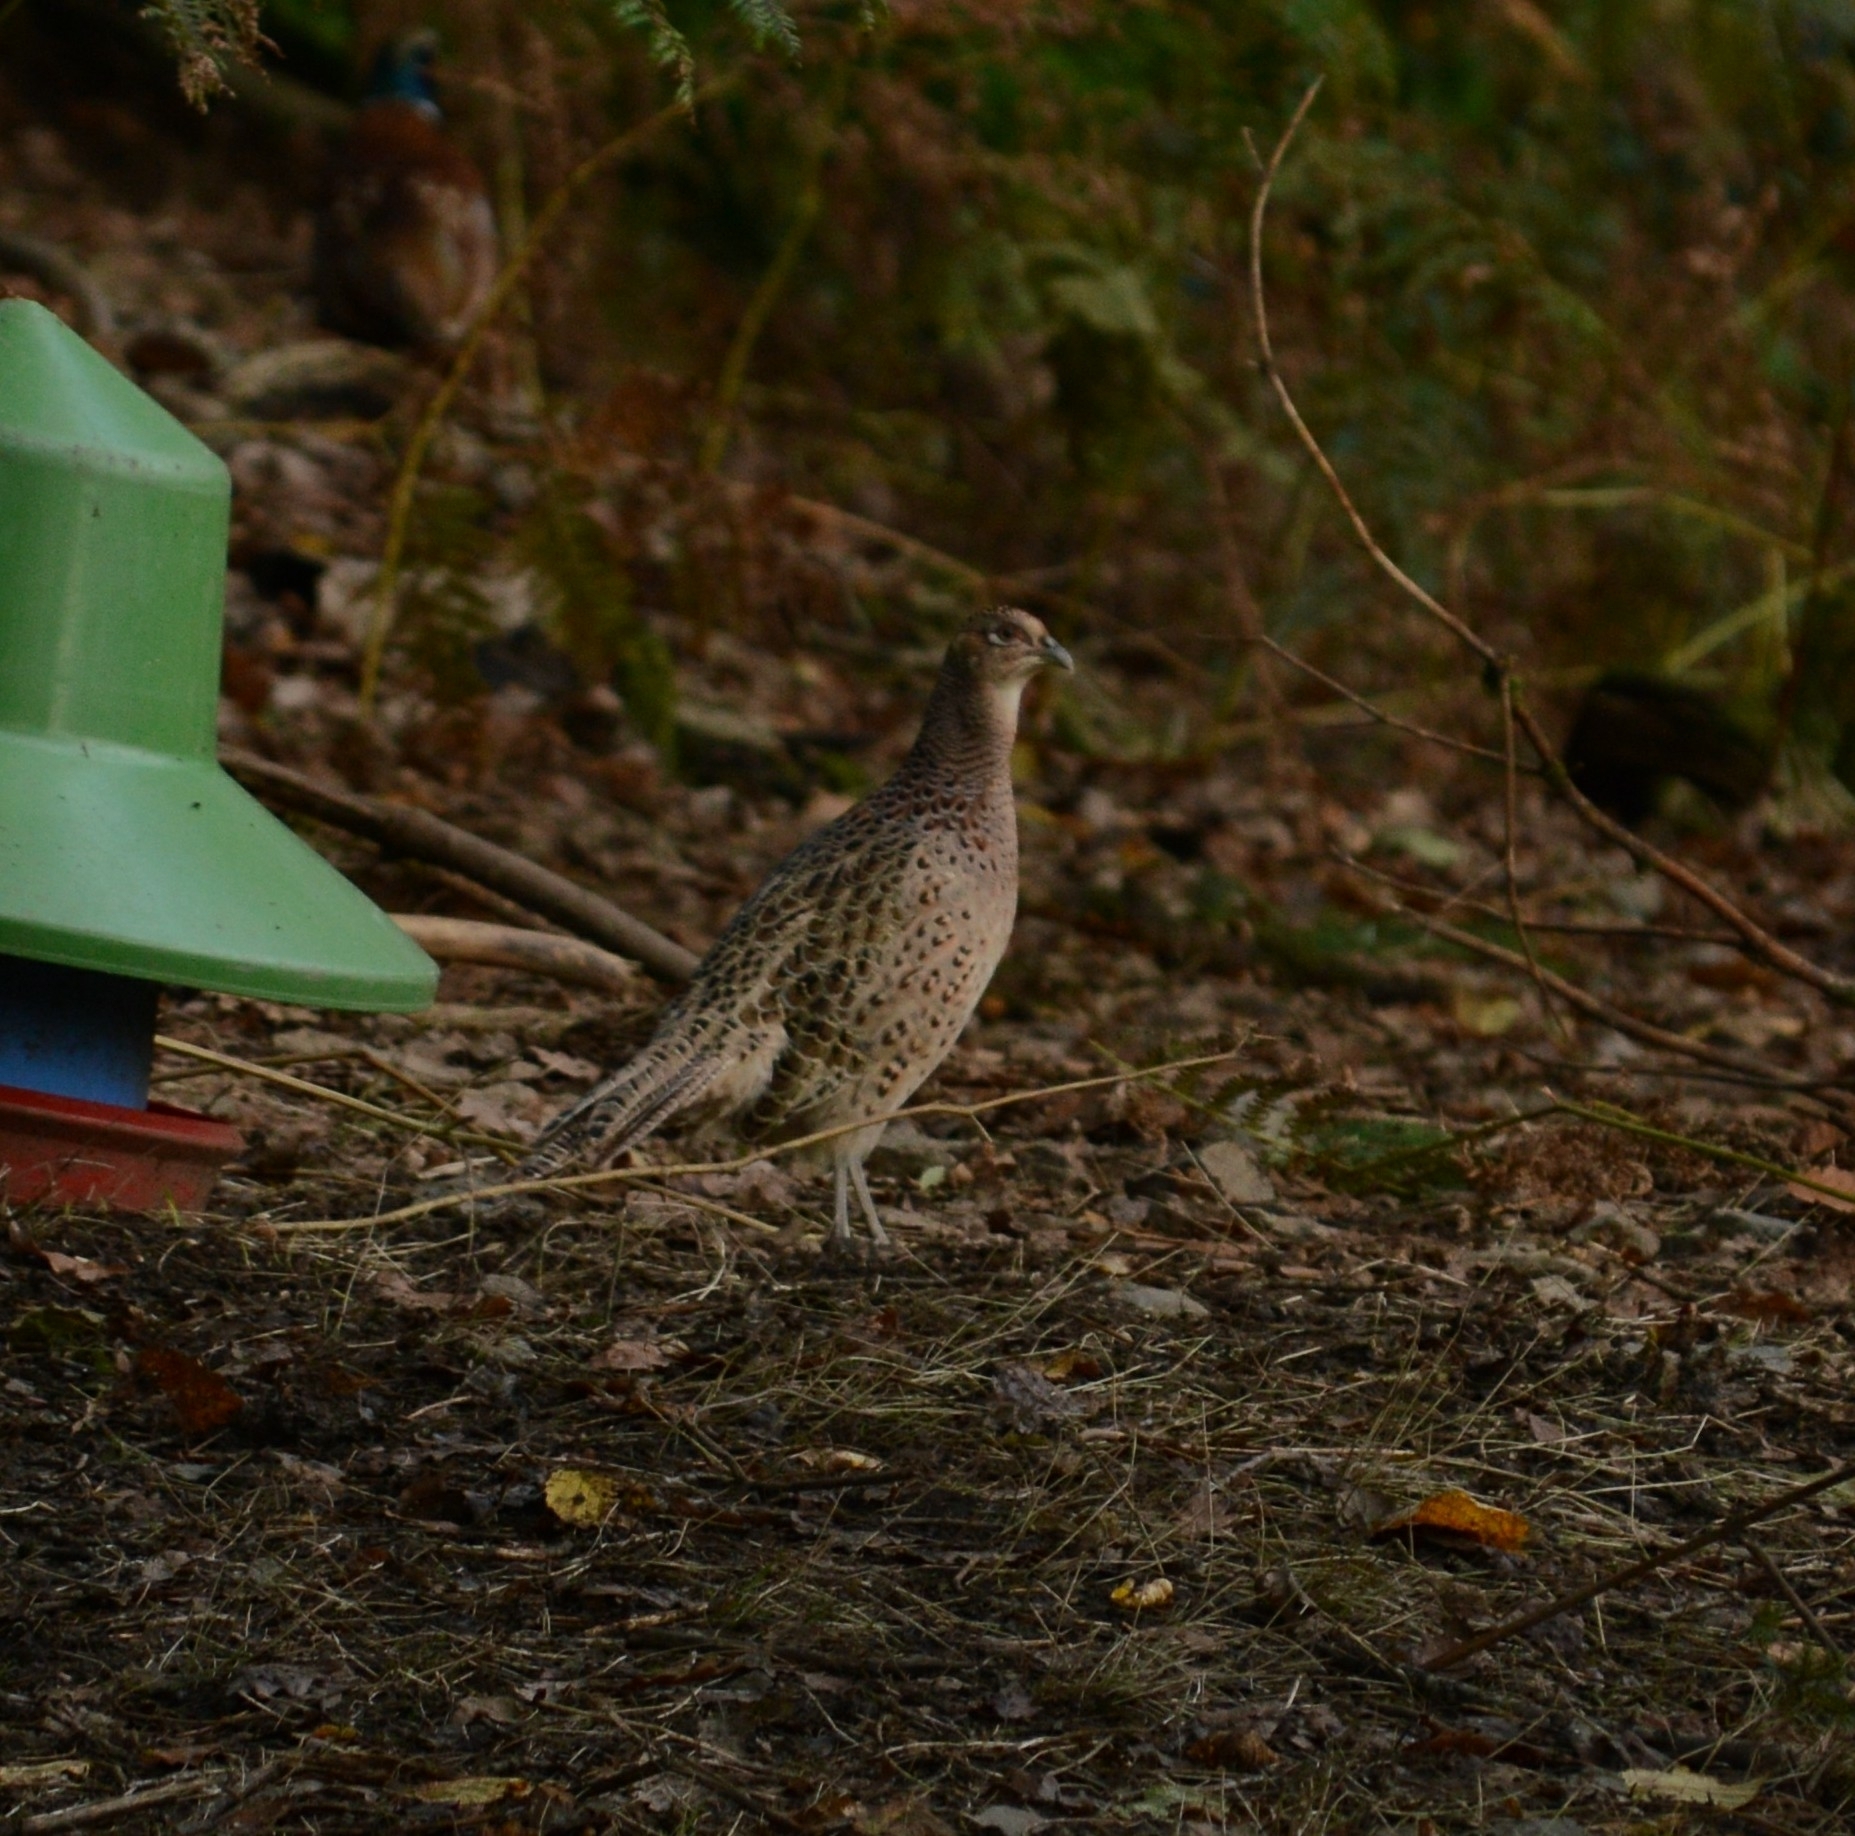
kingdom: Animalia
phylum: Chordata
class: Aves
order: Galliformes
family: Phasianidae
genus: Phasianus
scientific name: Phasianus colchicus
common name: Common pheasant
